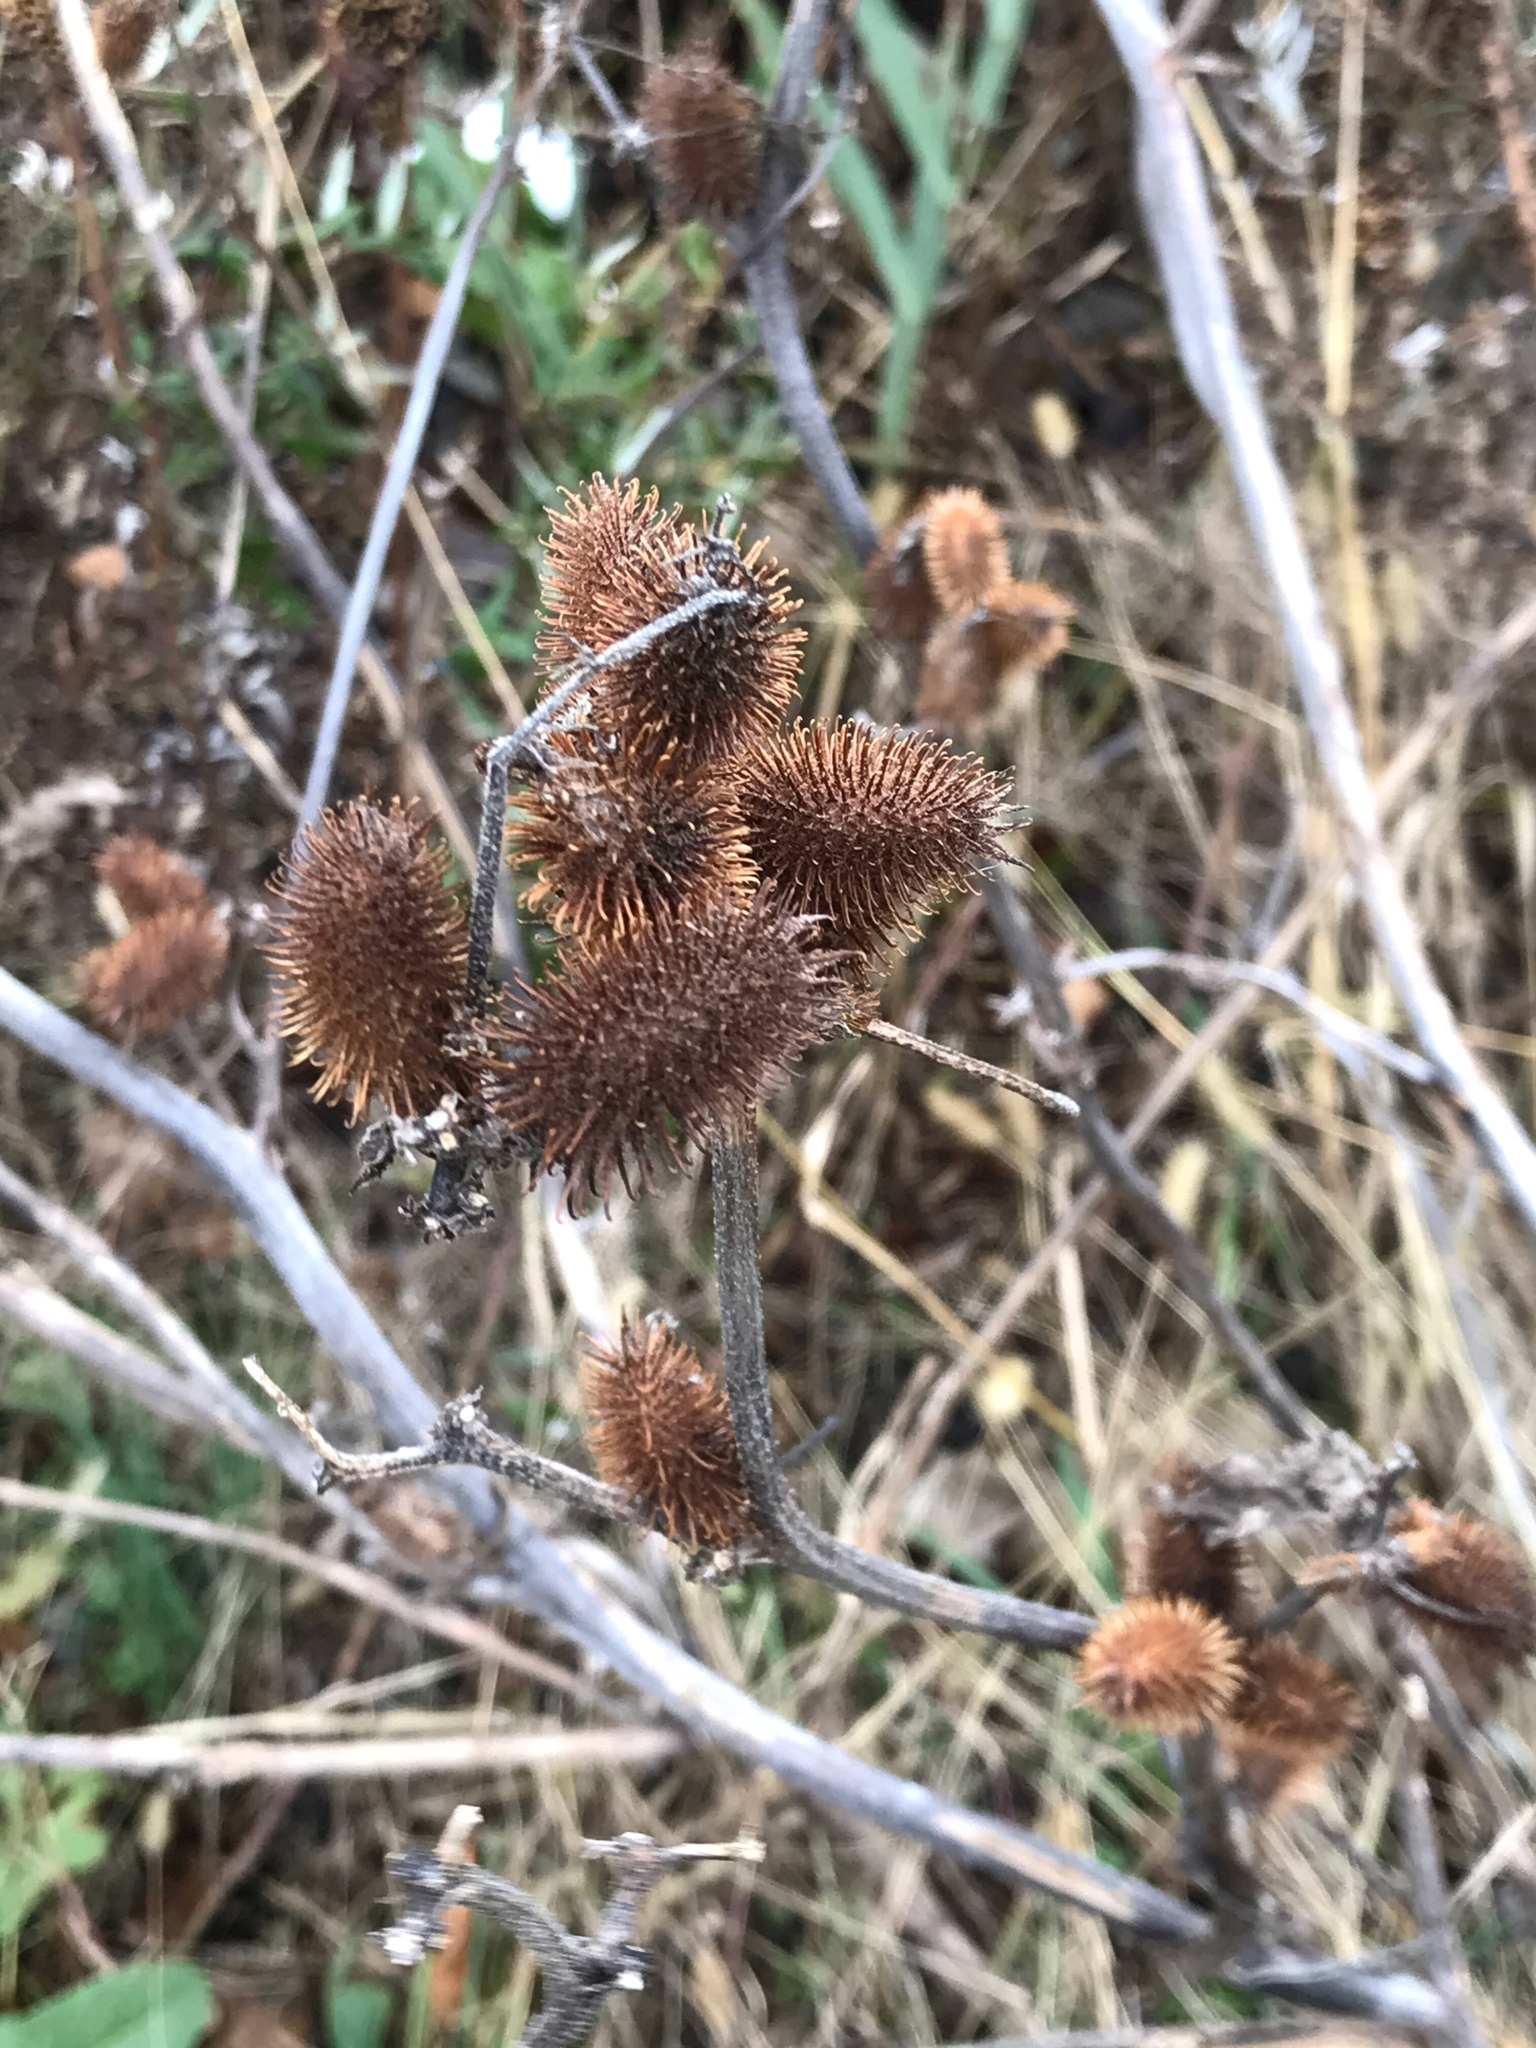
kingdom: Plantae
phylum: Tracheophyta
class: Magnoliopsida
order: Asterales
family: Asteraceae
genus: Xanthium
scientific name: Xanthium strumarium
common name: Rough cocklebur
